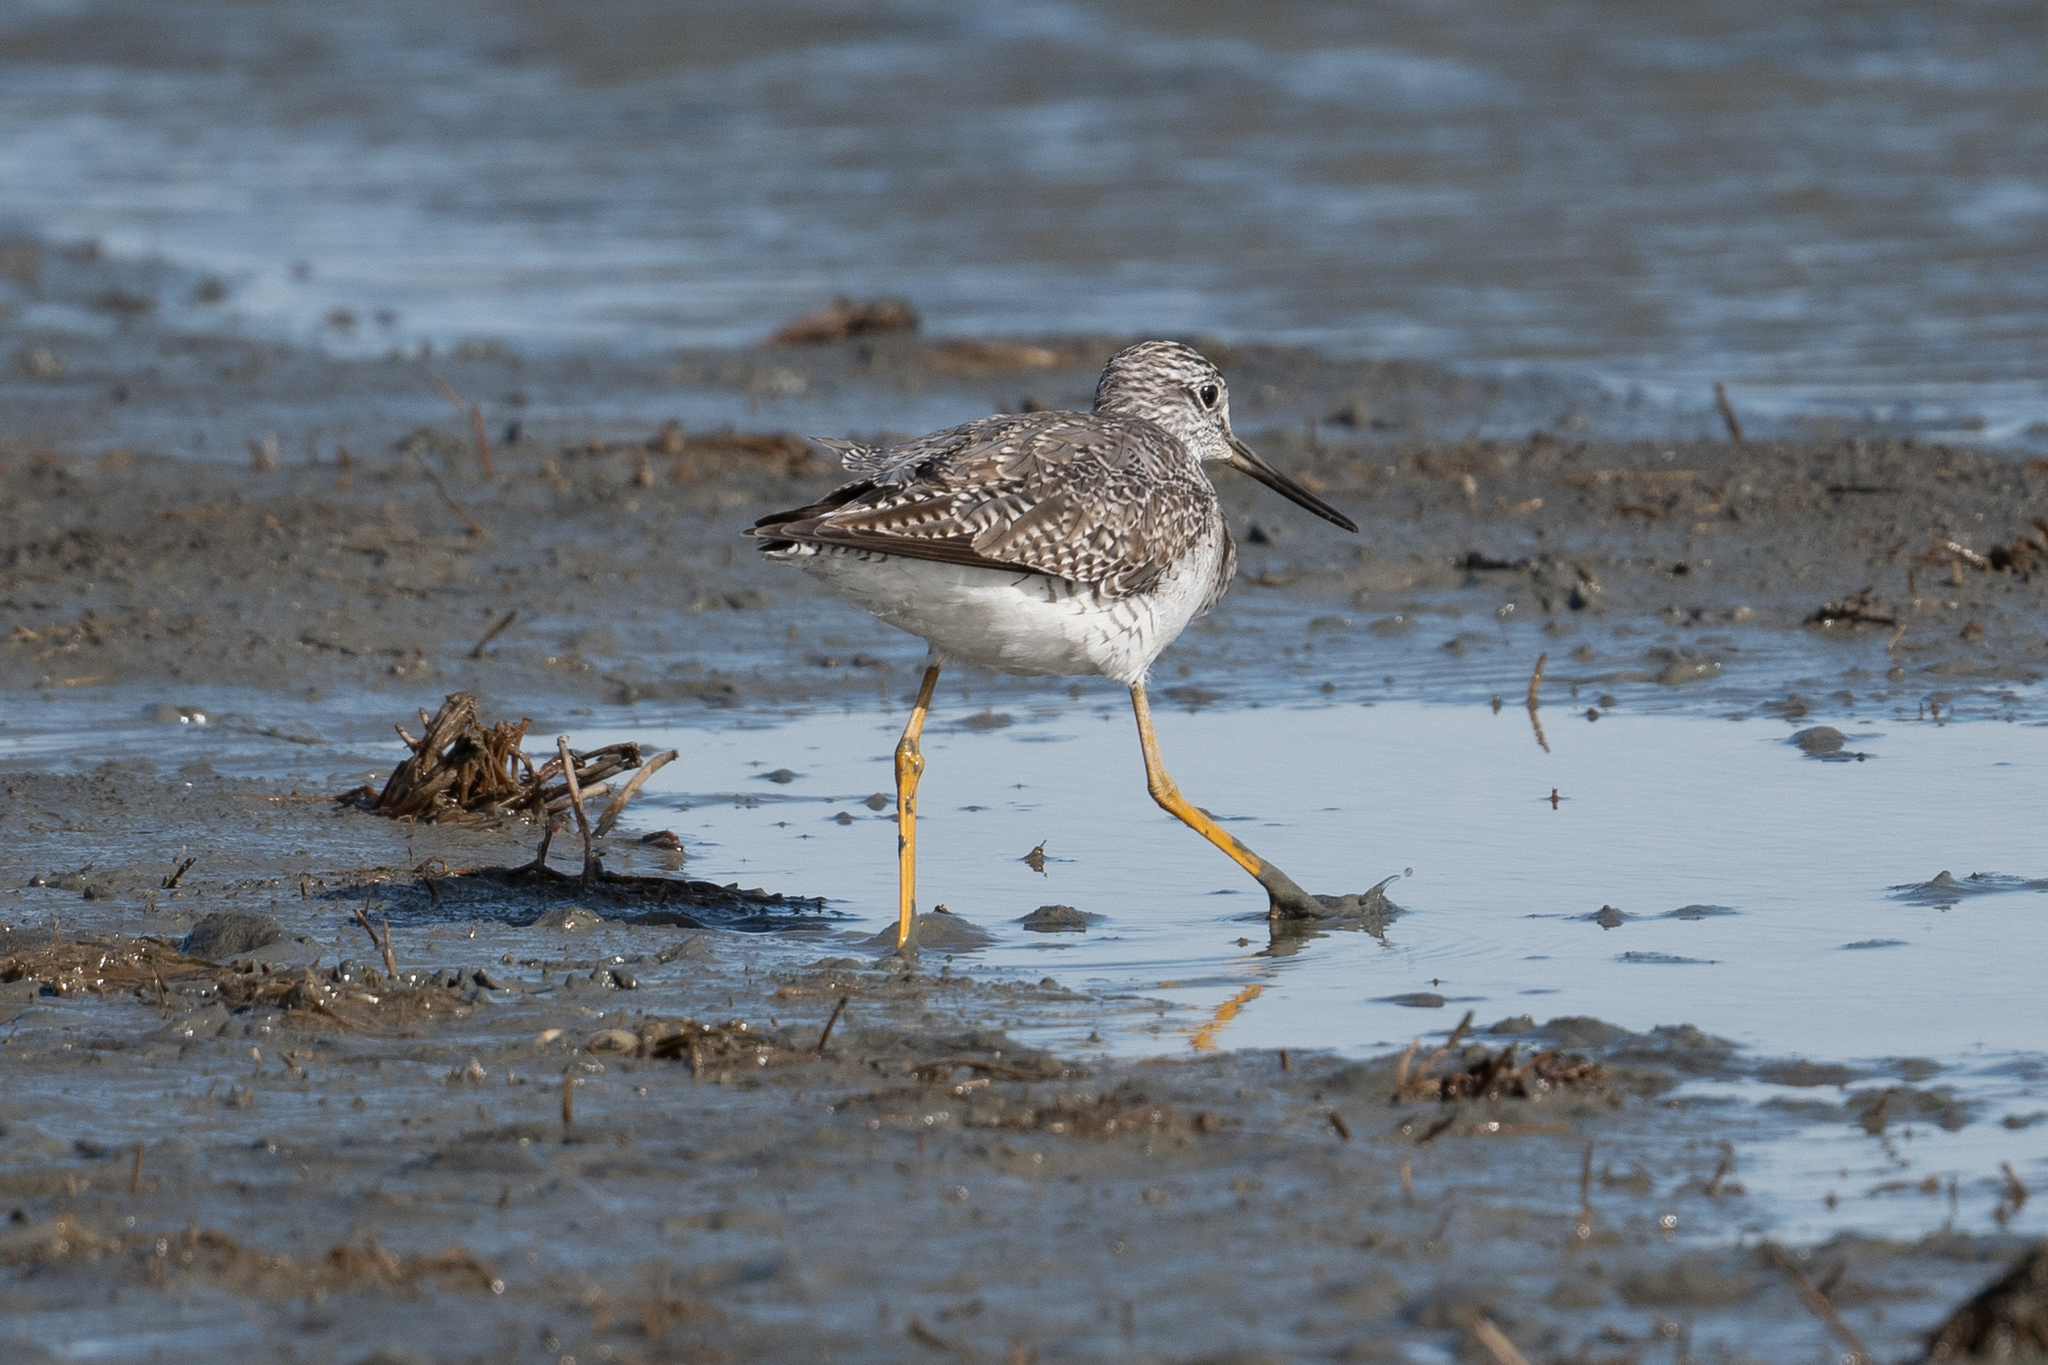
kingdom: Animalia
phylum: Chordata
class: Aves
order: Charadriiformes
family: Scolopacidae
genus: Tringa
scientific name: Tringa melanoleuca
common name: Greater yellowlegs
